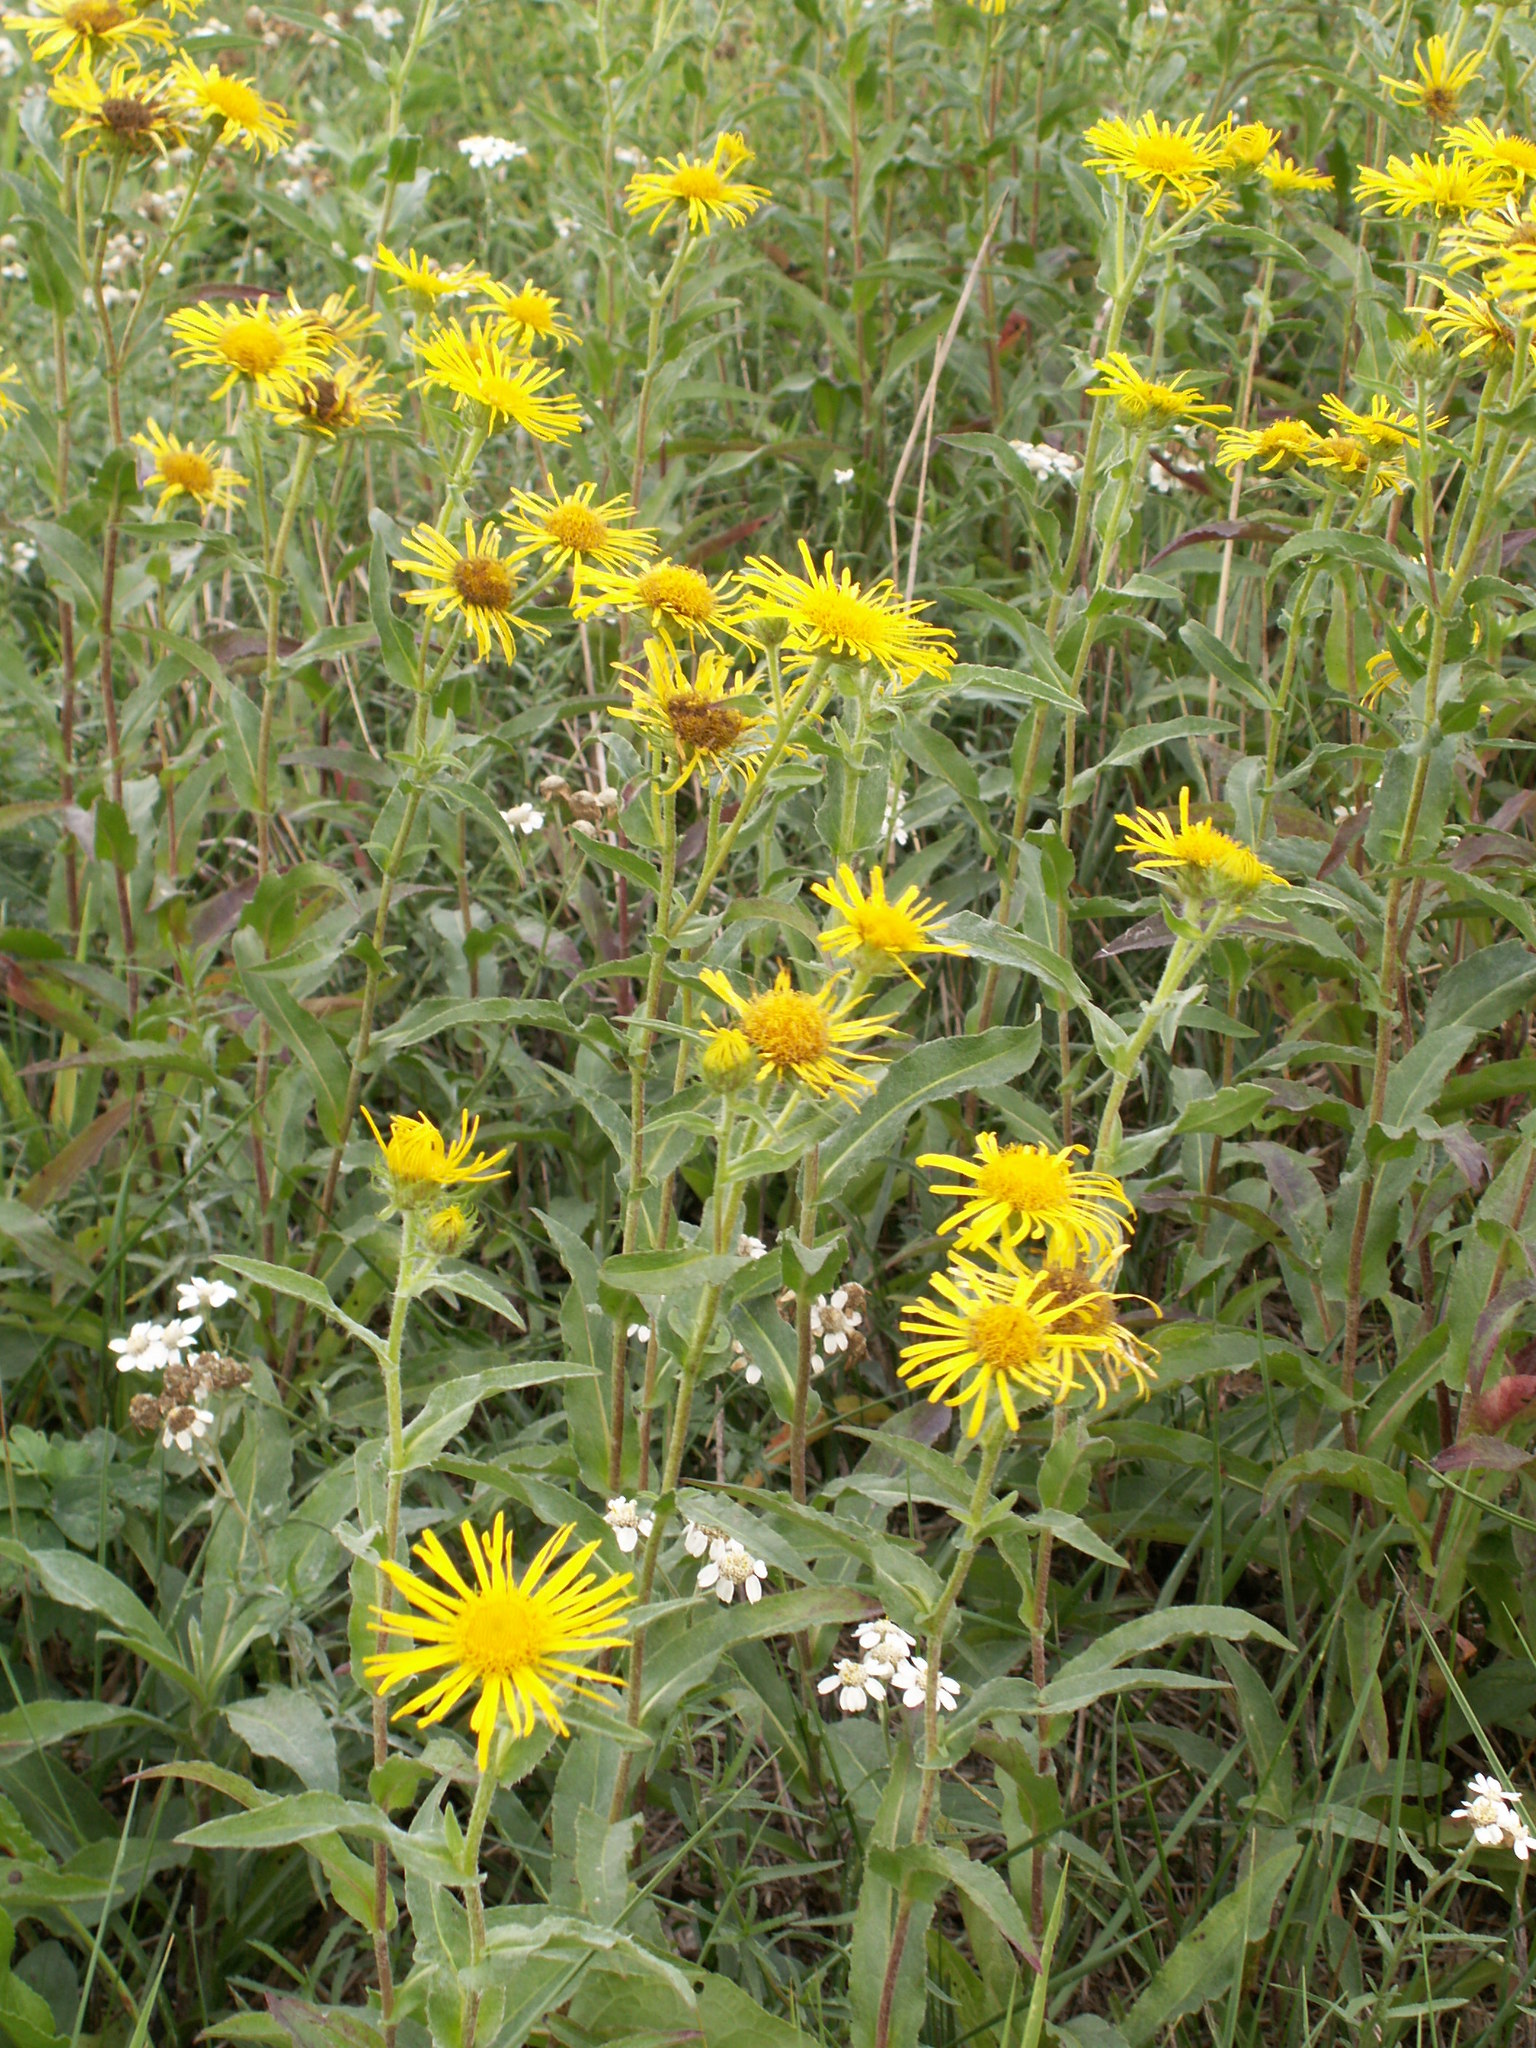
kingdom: Plantae
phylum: Tracheophyta
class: Magnoliopsida
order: Asterales
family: Asteraceae
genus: Pentanema
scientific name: Pentanema britannicum
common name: British elecampane
